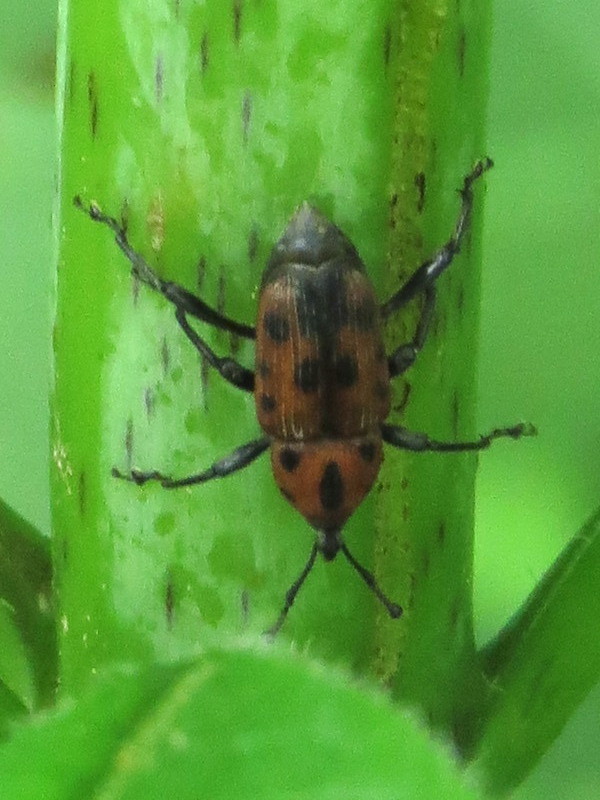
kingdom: Animalia
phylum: Arthropoda
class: Insecta
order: Coleoptera
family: Dryophthoridae
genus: Rhodobaenus
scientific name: Rhodobaenus quinquepunctatus
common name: Cocklebur weevil
